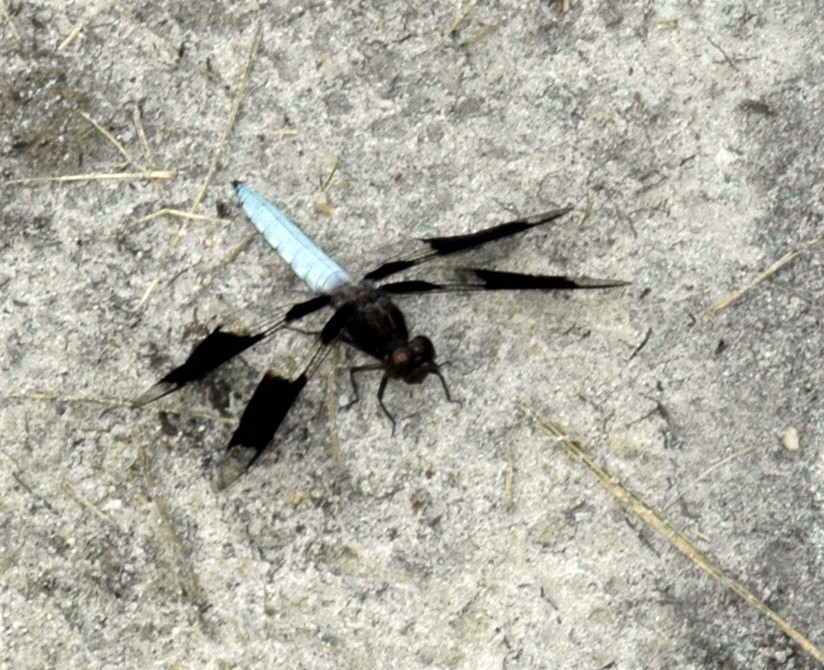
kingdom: Animalia
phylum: Arthropoda
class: Insecta
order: Odonata
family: Libellulidae
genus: Plathemis
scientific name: Plathemis lydia
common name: Common whitetail
